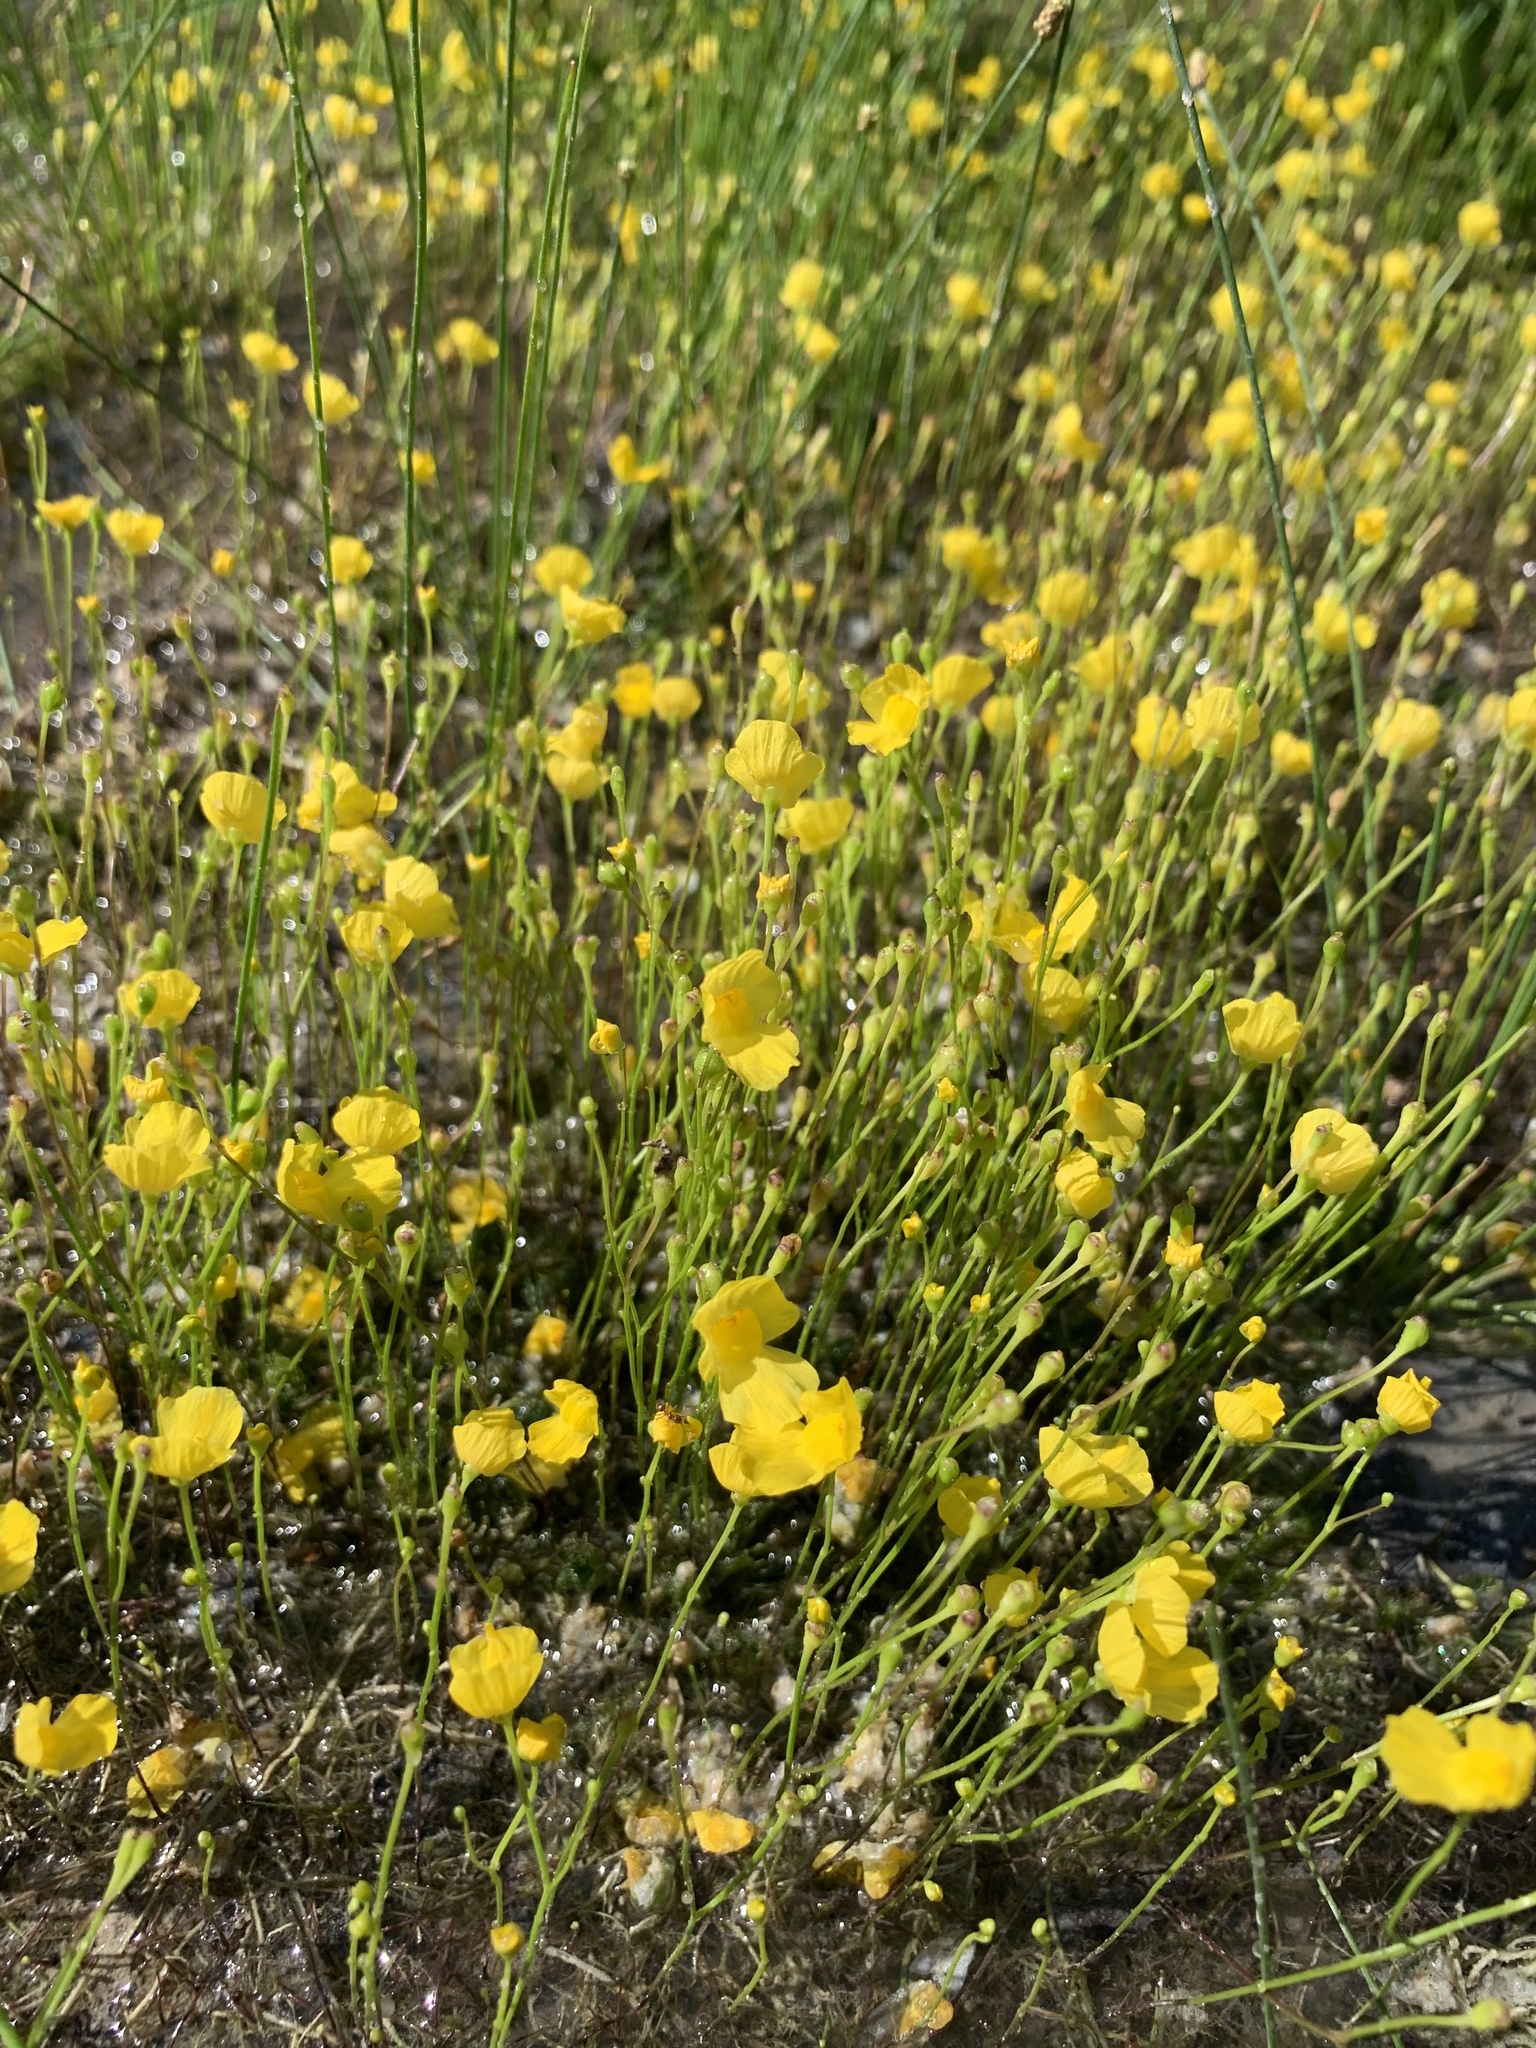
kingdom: Plantae
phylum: Tracheophyta
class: Magnoliopsida
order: Lamiales
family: Lentibulariaceae
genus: Utricularia
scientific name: Utricularia gibba
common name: Humped bladderwort
